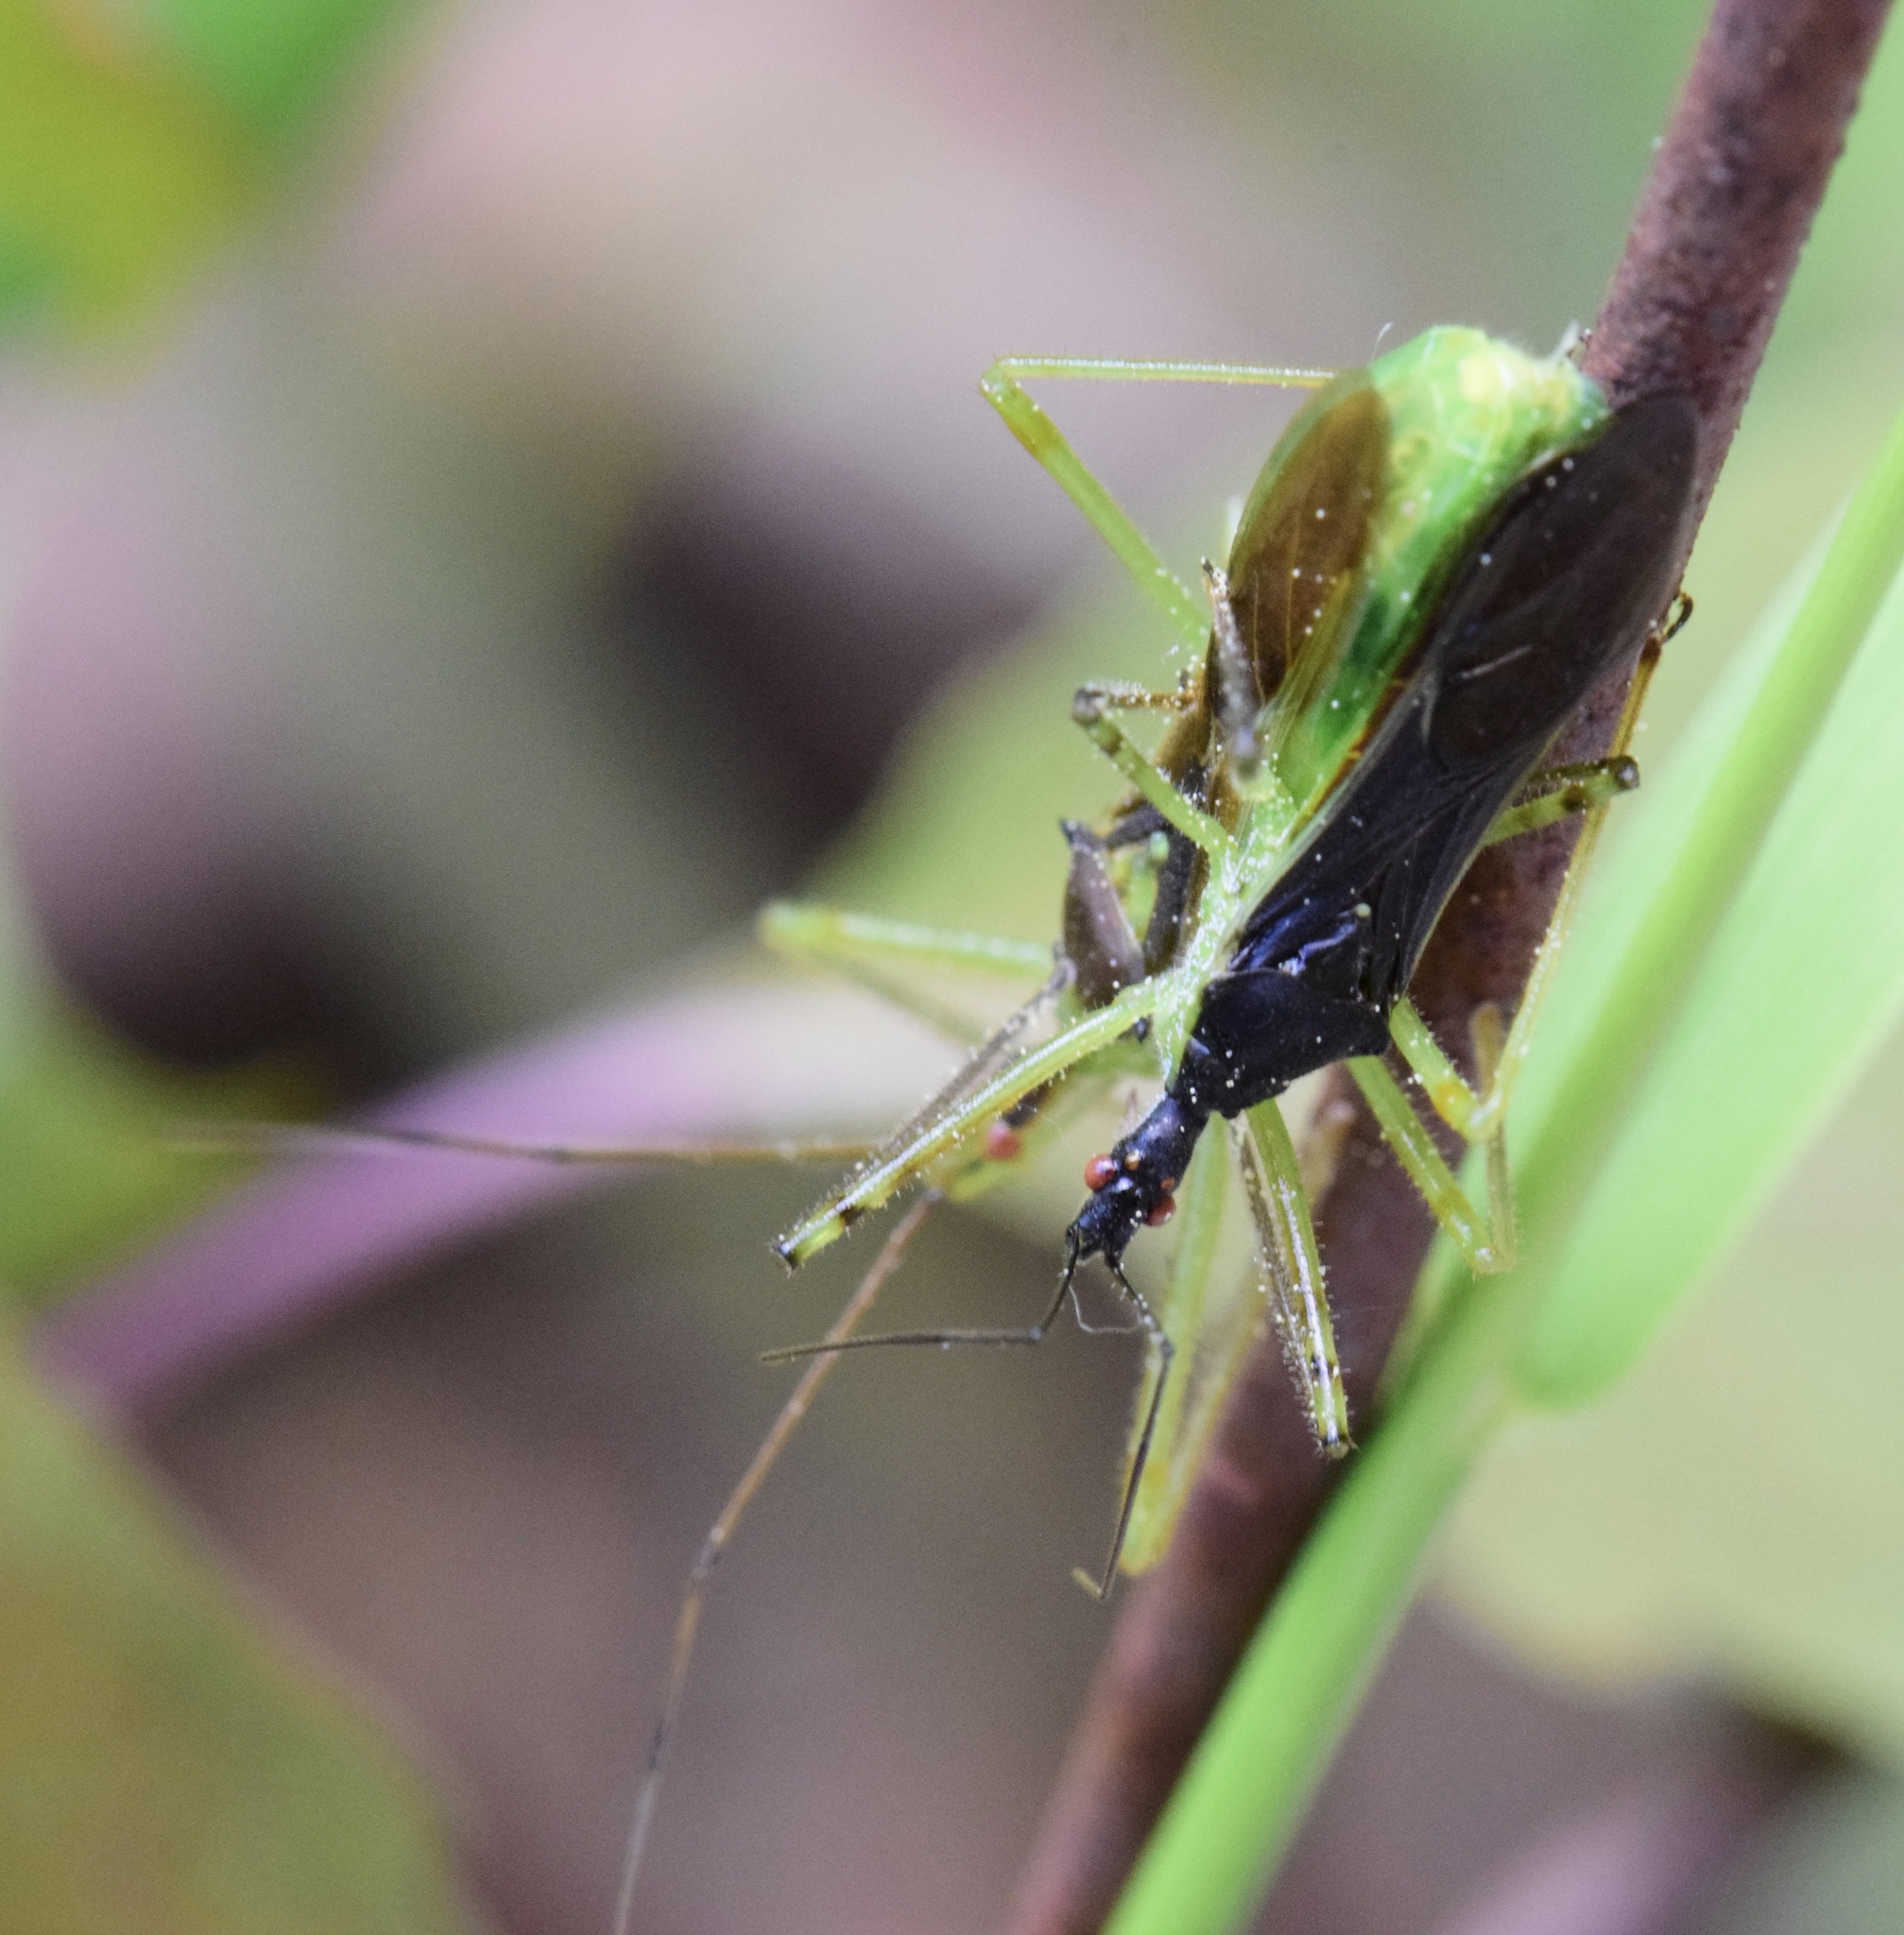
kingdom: Animalia
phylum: Arthropoda
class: Insecta
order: Hemiptera
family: Reduviidae
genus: Zelus
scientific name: Zelus luridus
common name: Pale green assassin bug
